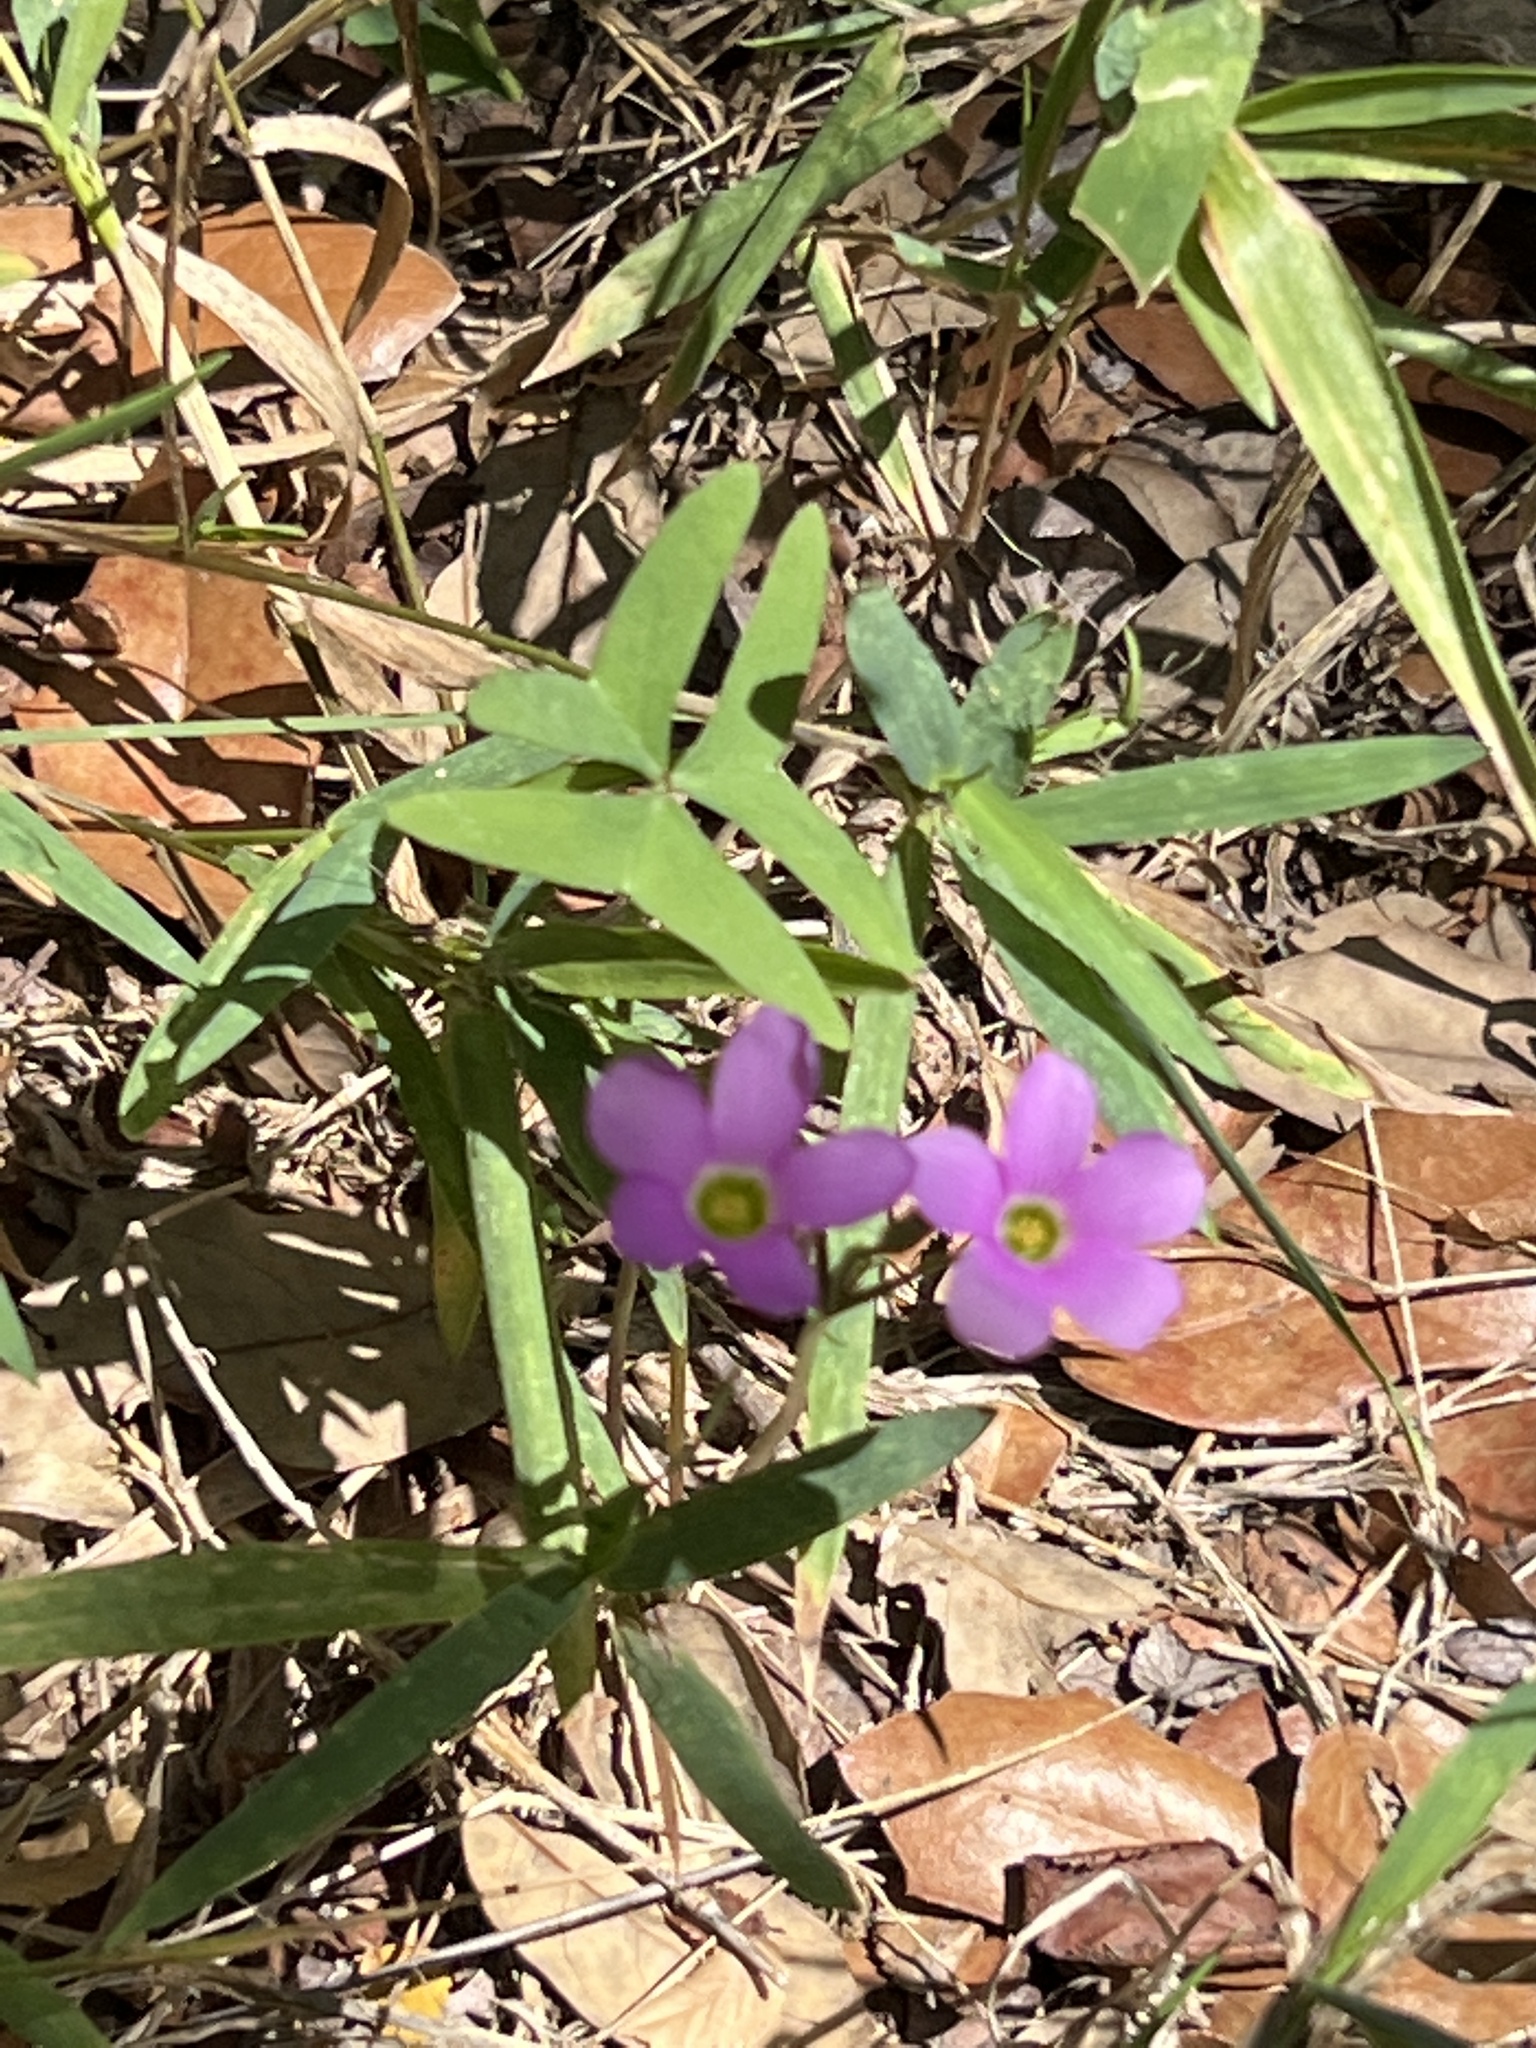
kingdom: Plantae
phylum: Tracheophyta
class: Magnoliopsida
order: Oxalidales
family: Oxalidaceae
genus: Oxalis
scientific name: Oxalis drummondii
